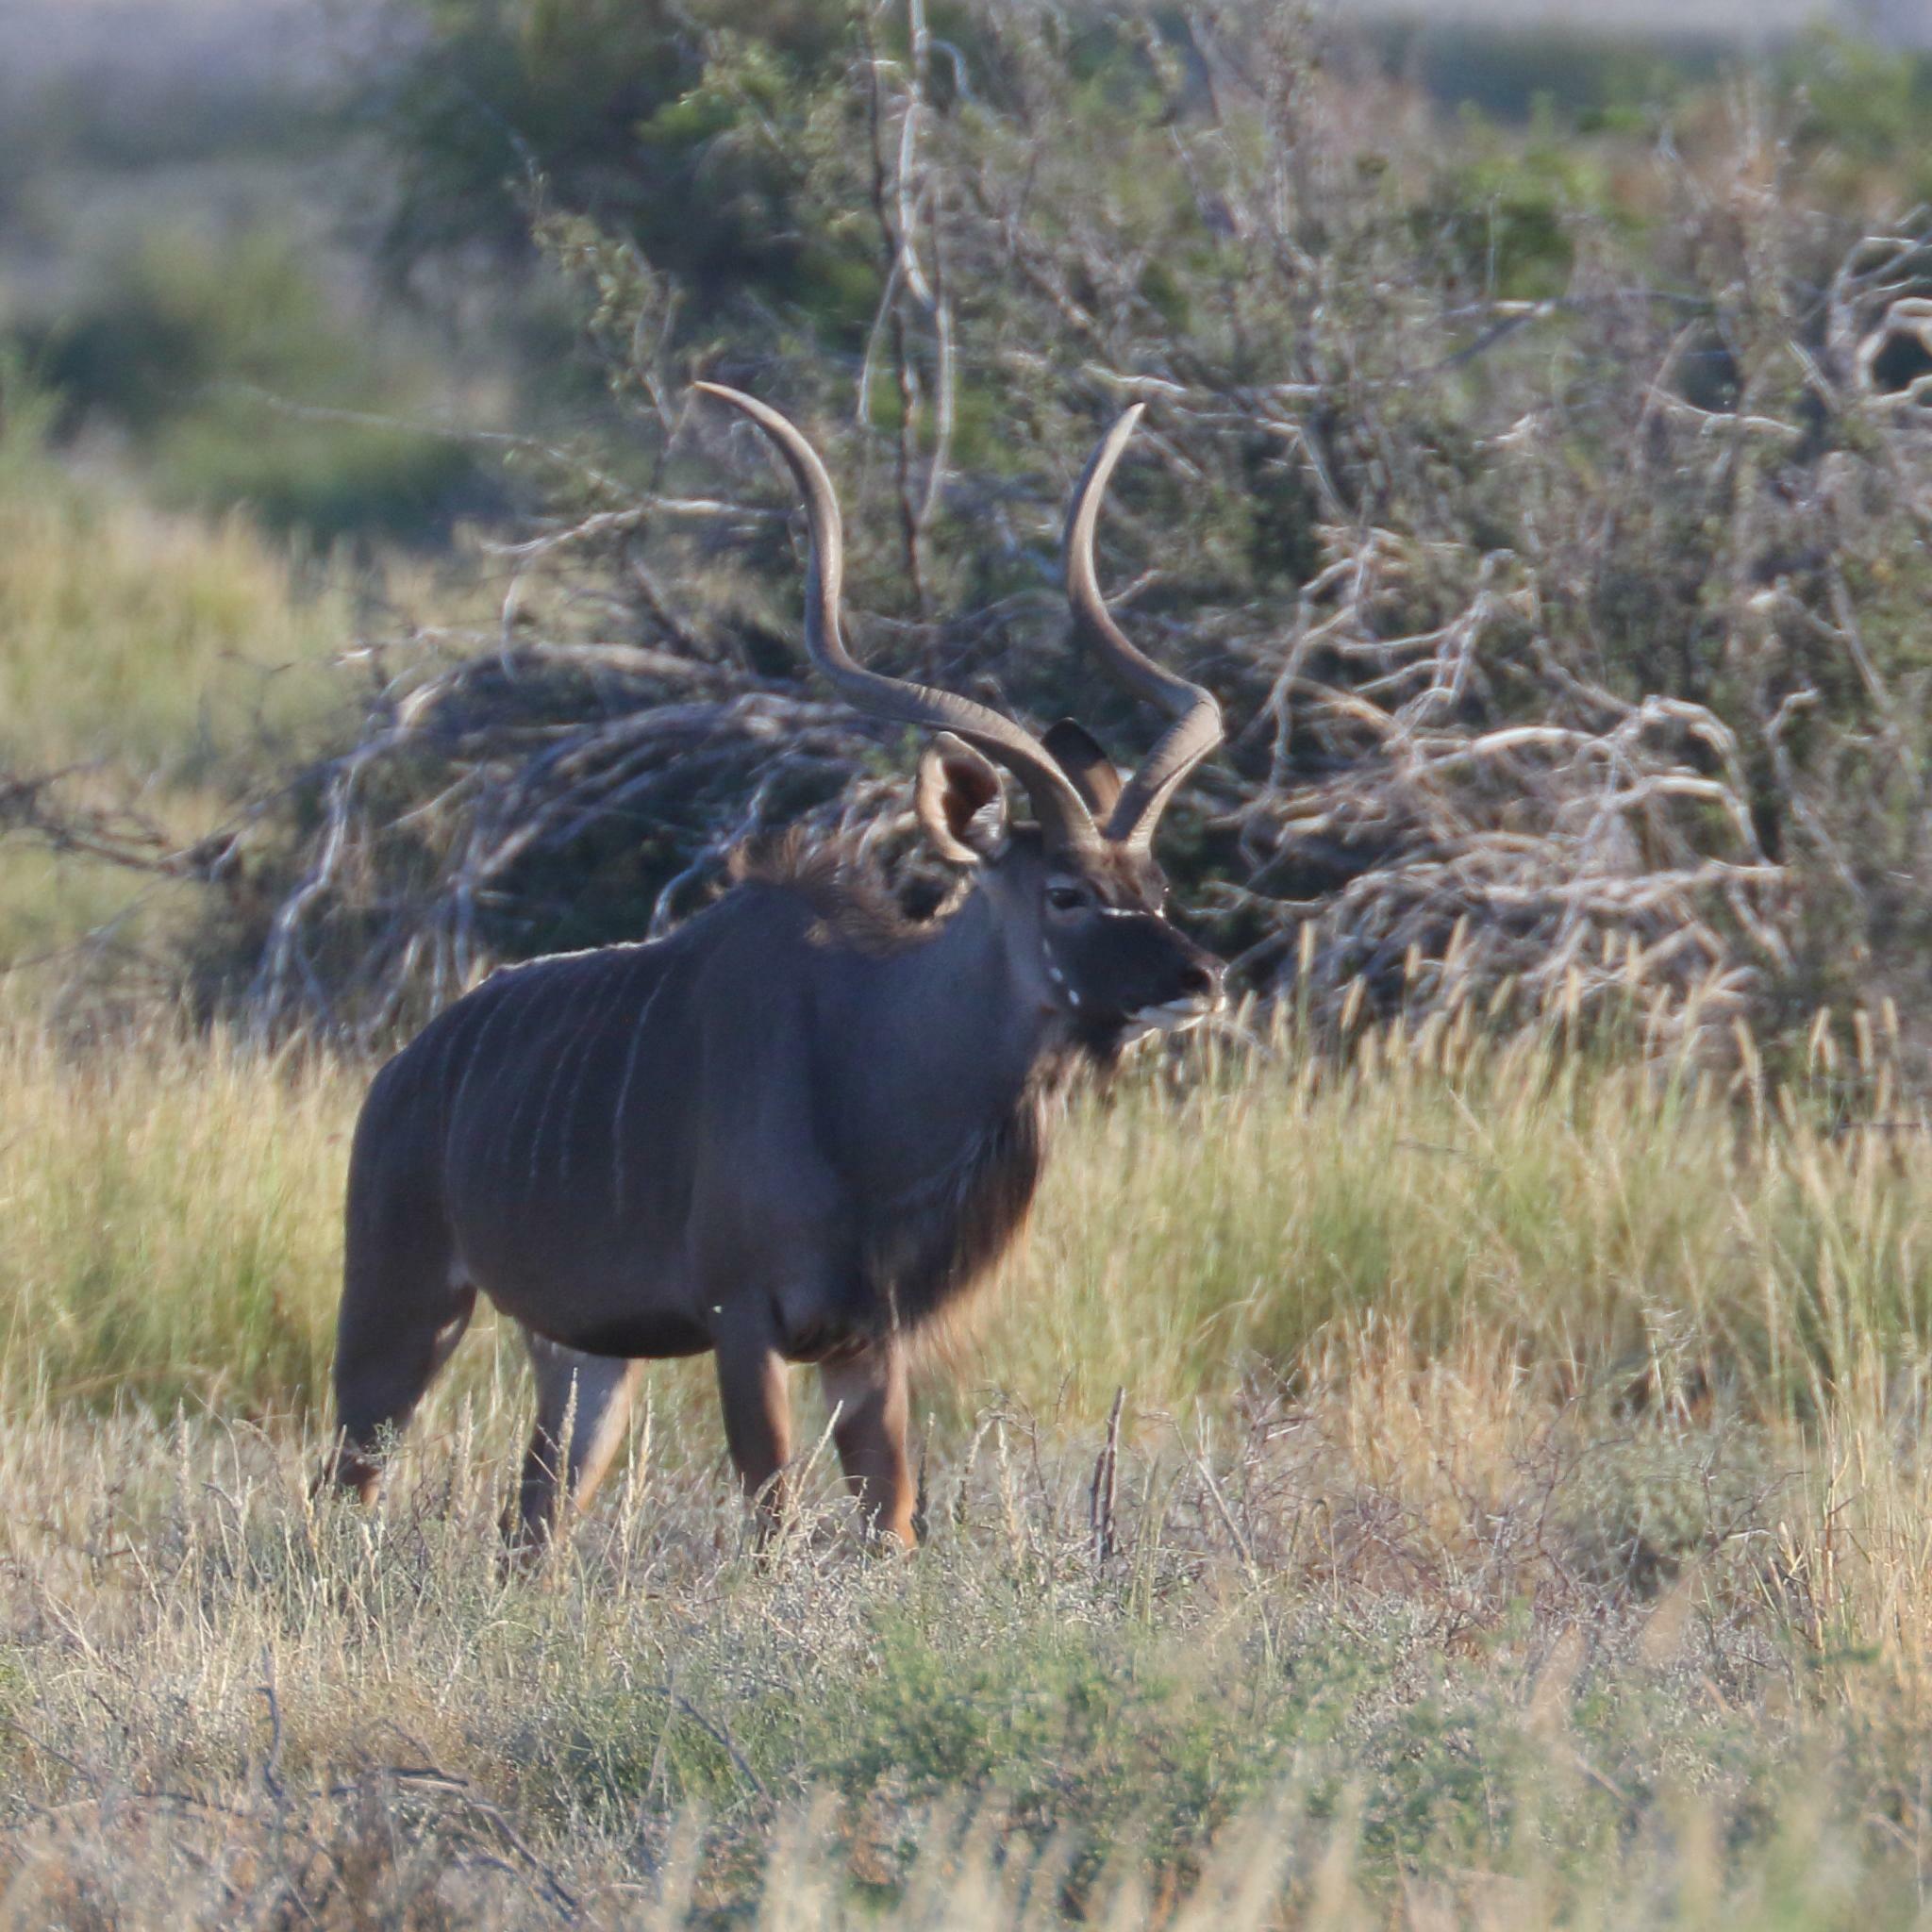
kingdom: Animalia
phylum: Chordata
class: Mammalia
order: Artiodactyla
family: Bovidae
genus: Tragelaphus
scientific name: Tragelaphus strepsiceros
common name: Greater kudu
